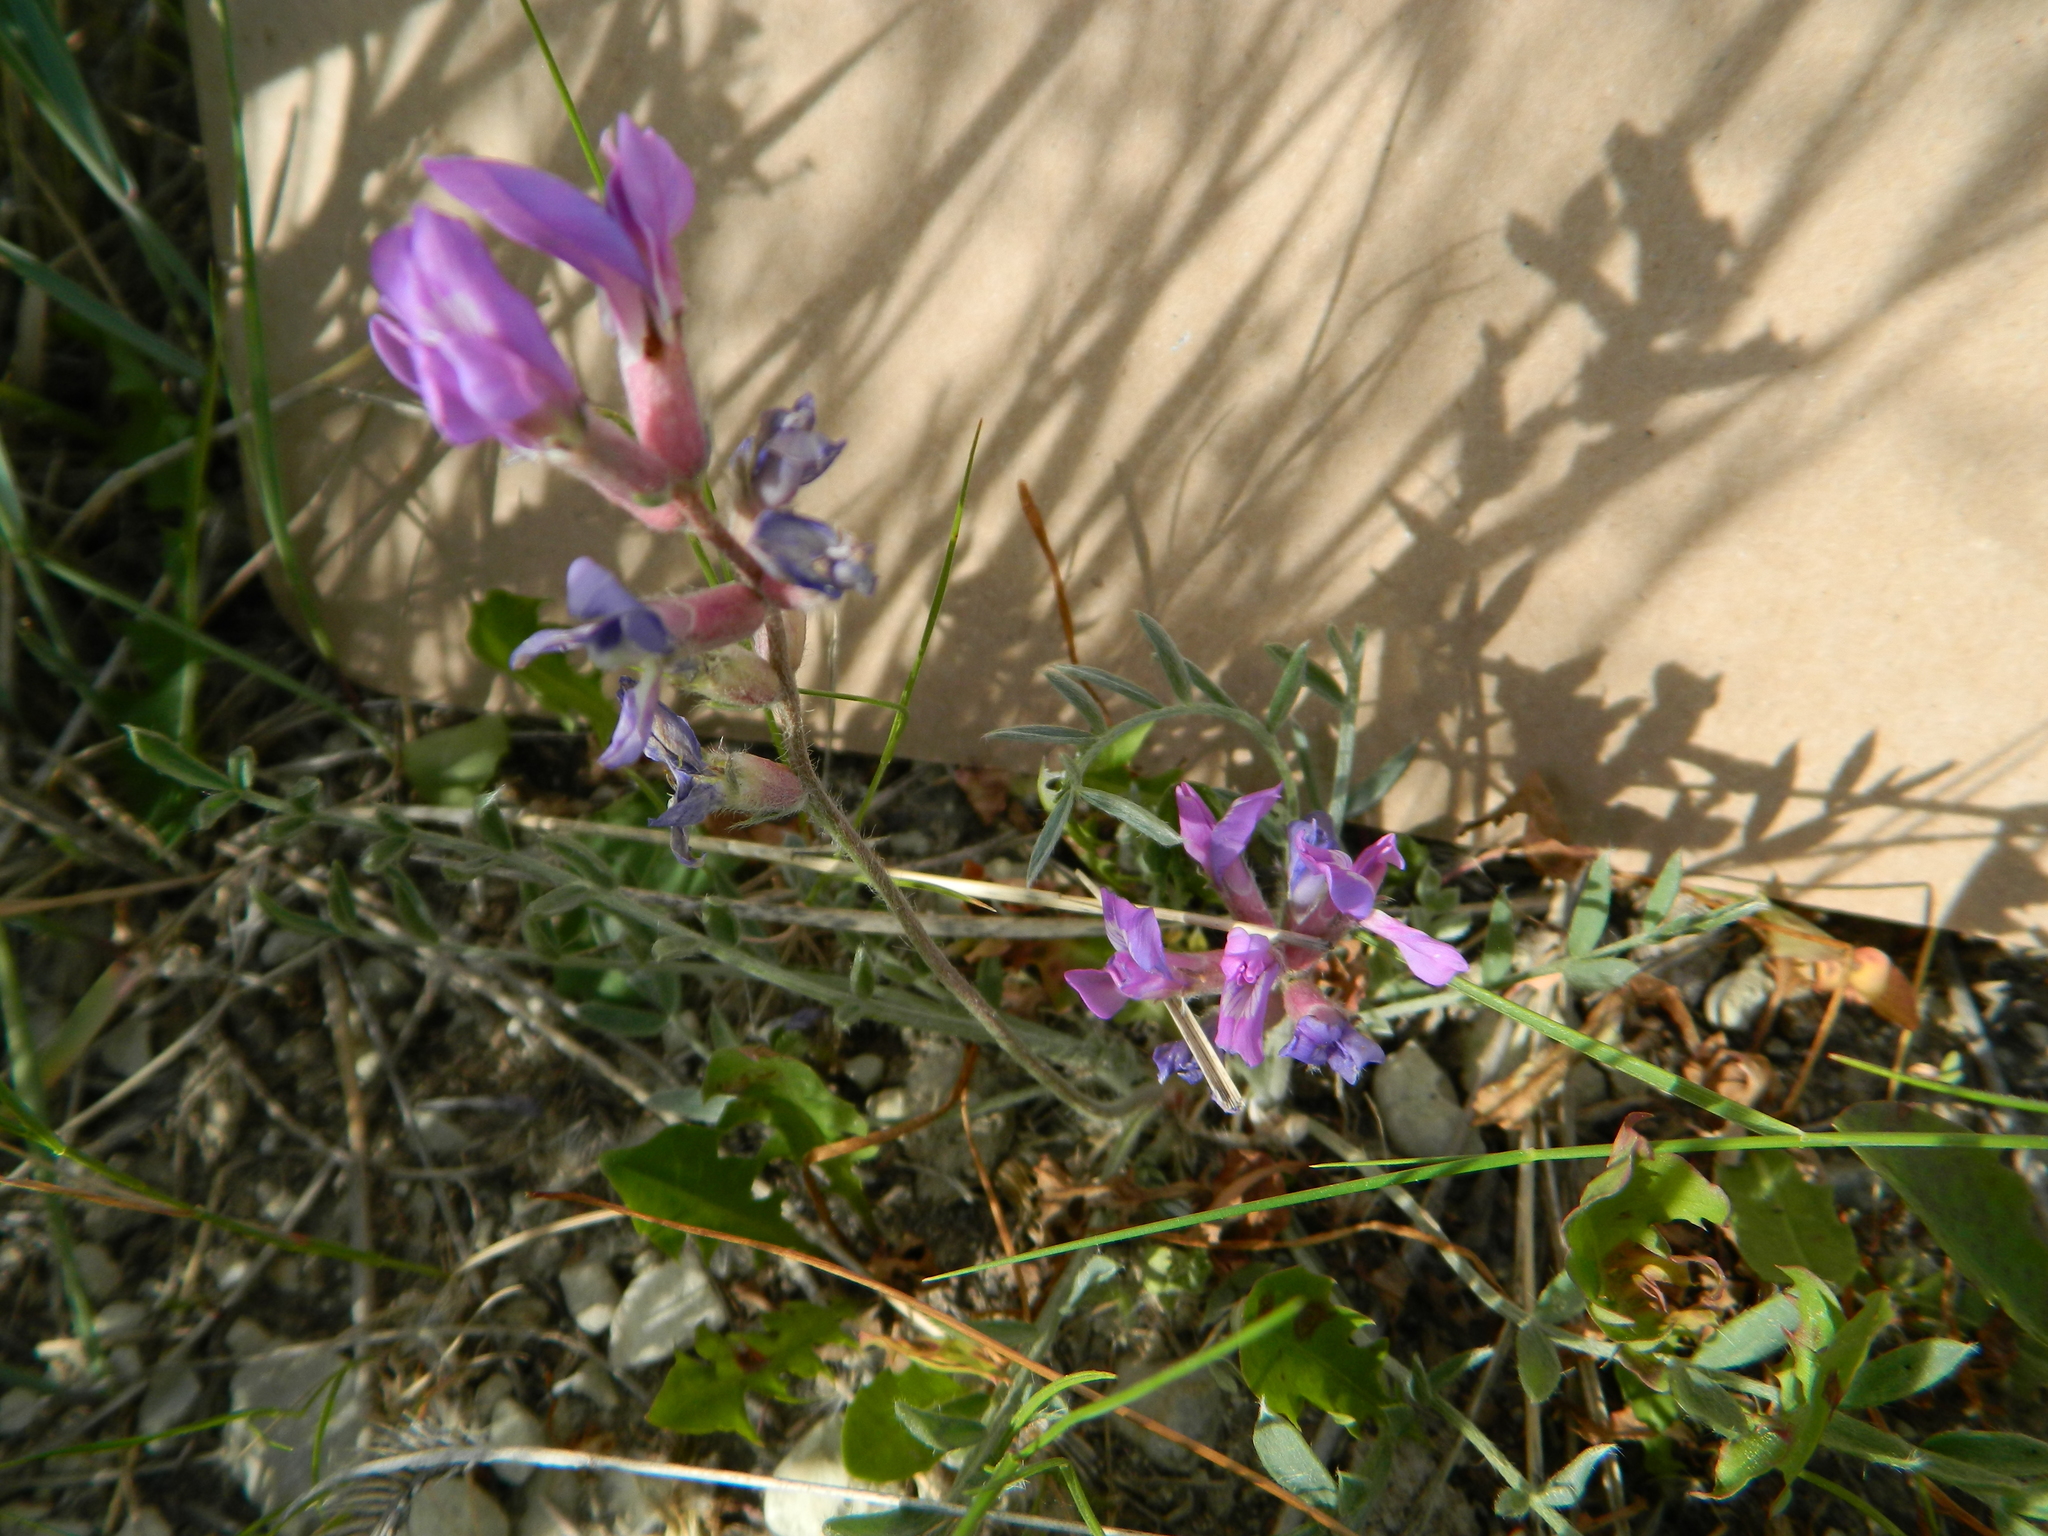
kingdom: Plantae
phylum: Tracheophyta
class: Magnoliopsida
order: Fabales
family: Fabaceae
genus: Astragalus
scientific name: Astragalus missouriensis
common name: Missouri milk-vetch
